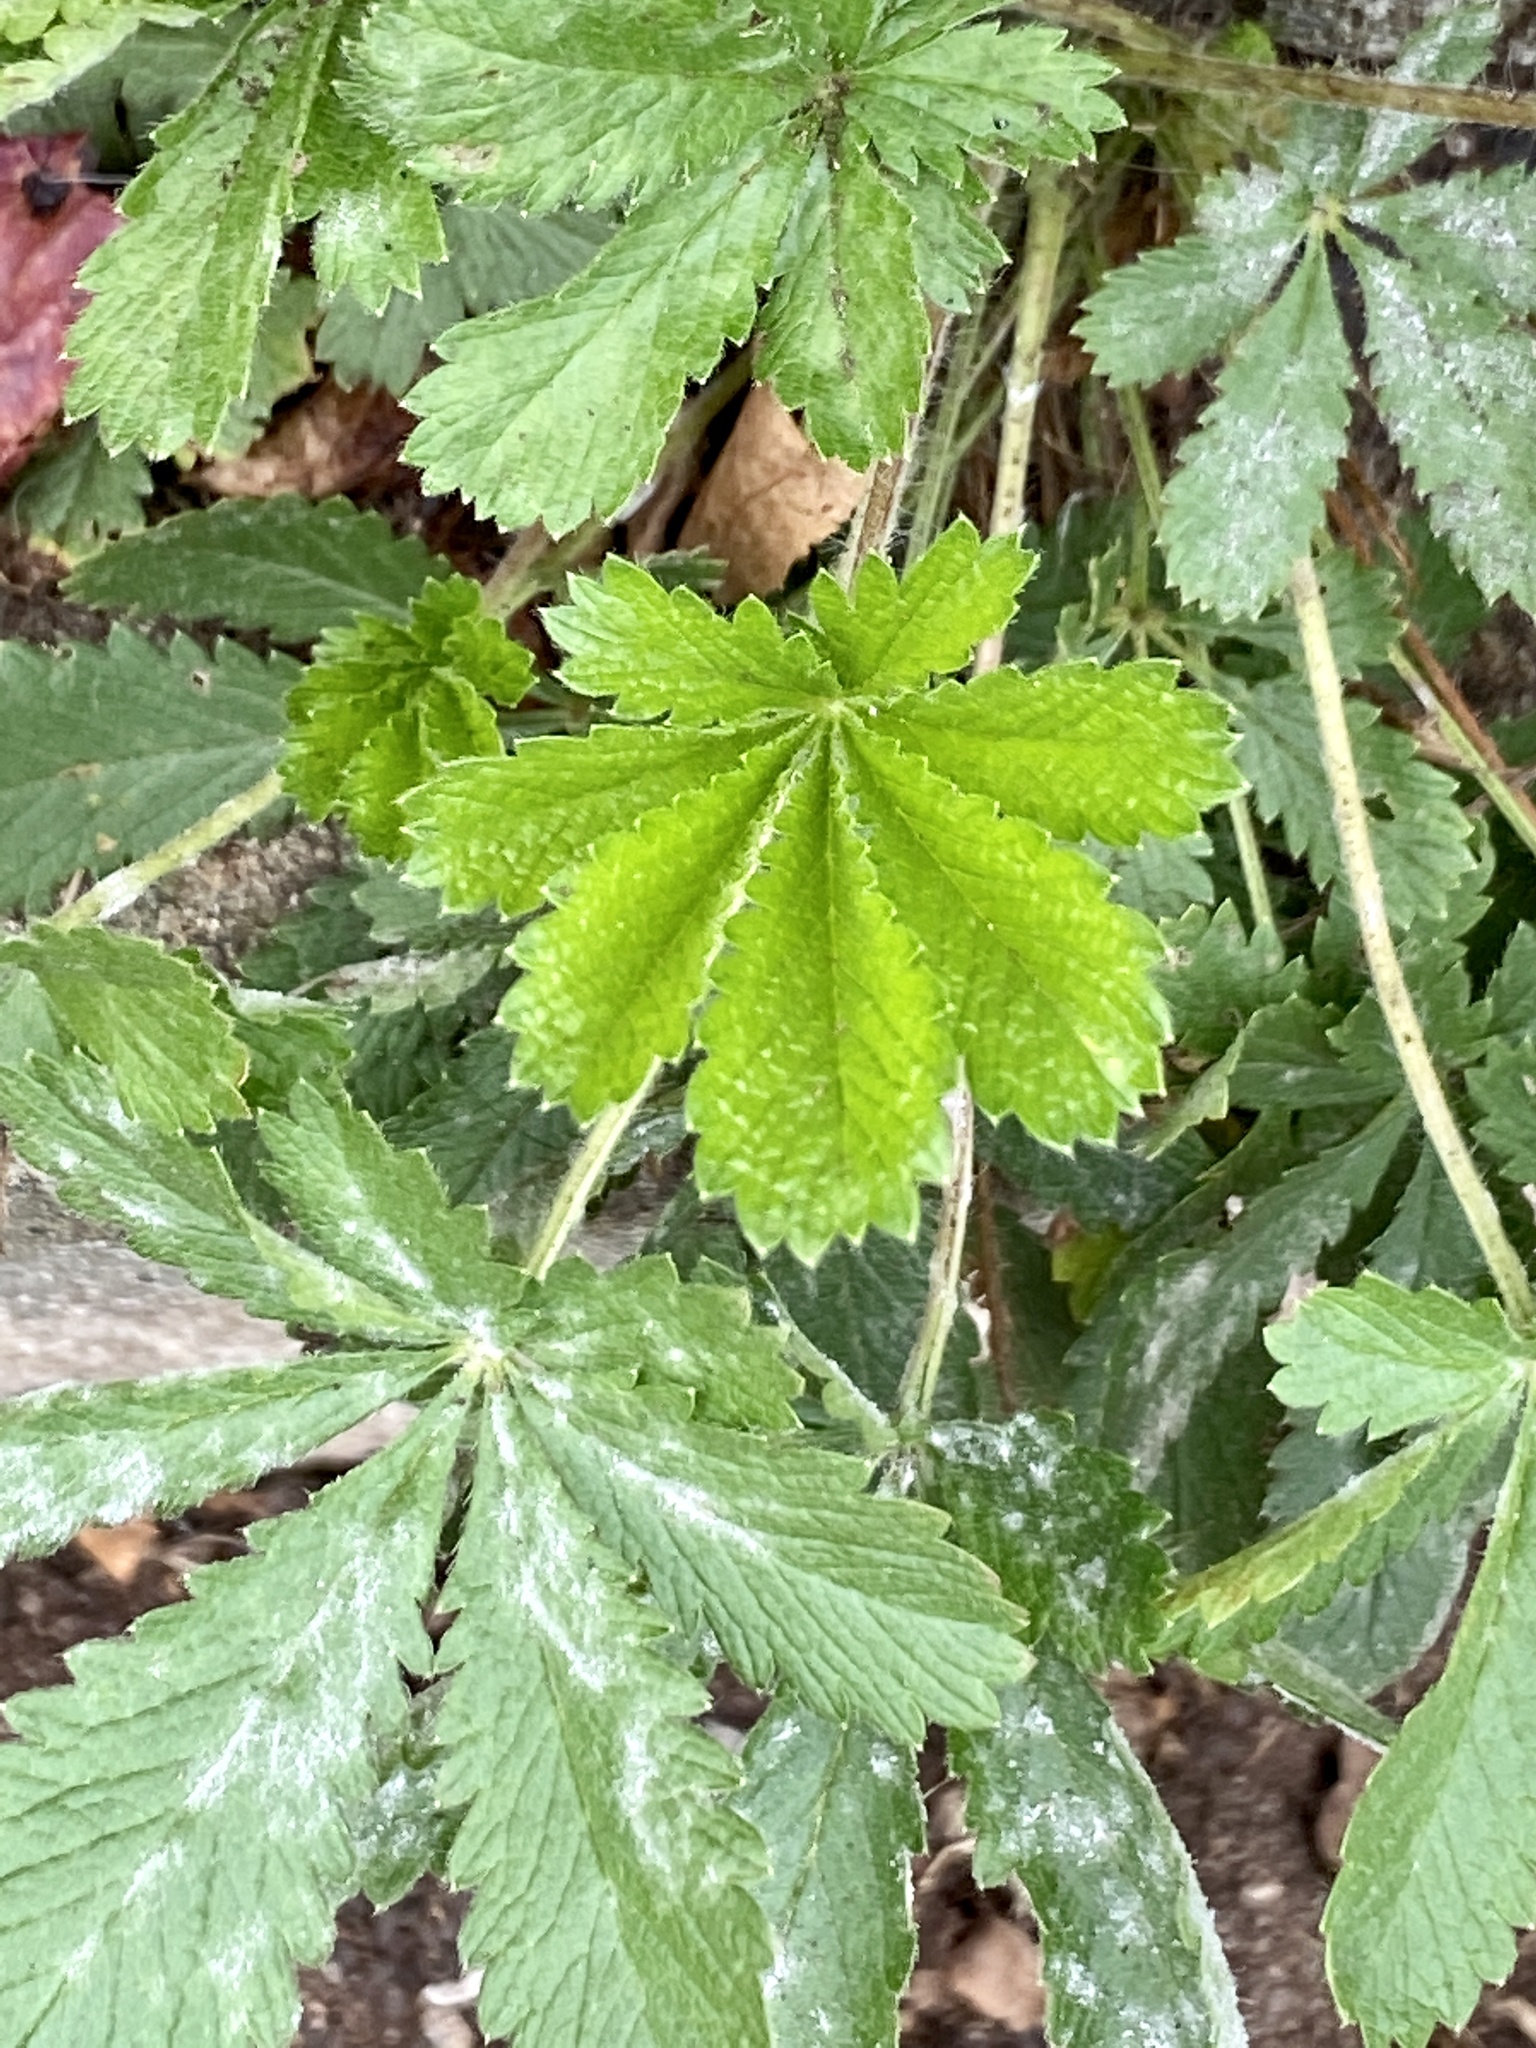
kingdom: Plantae
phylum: Tracheophyta
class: Magnoliopsida
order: Rosales
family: Rosaceae
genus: Potentilla
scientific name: Potentilla recta
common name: Sulphur cinquefoil
